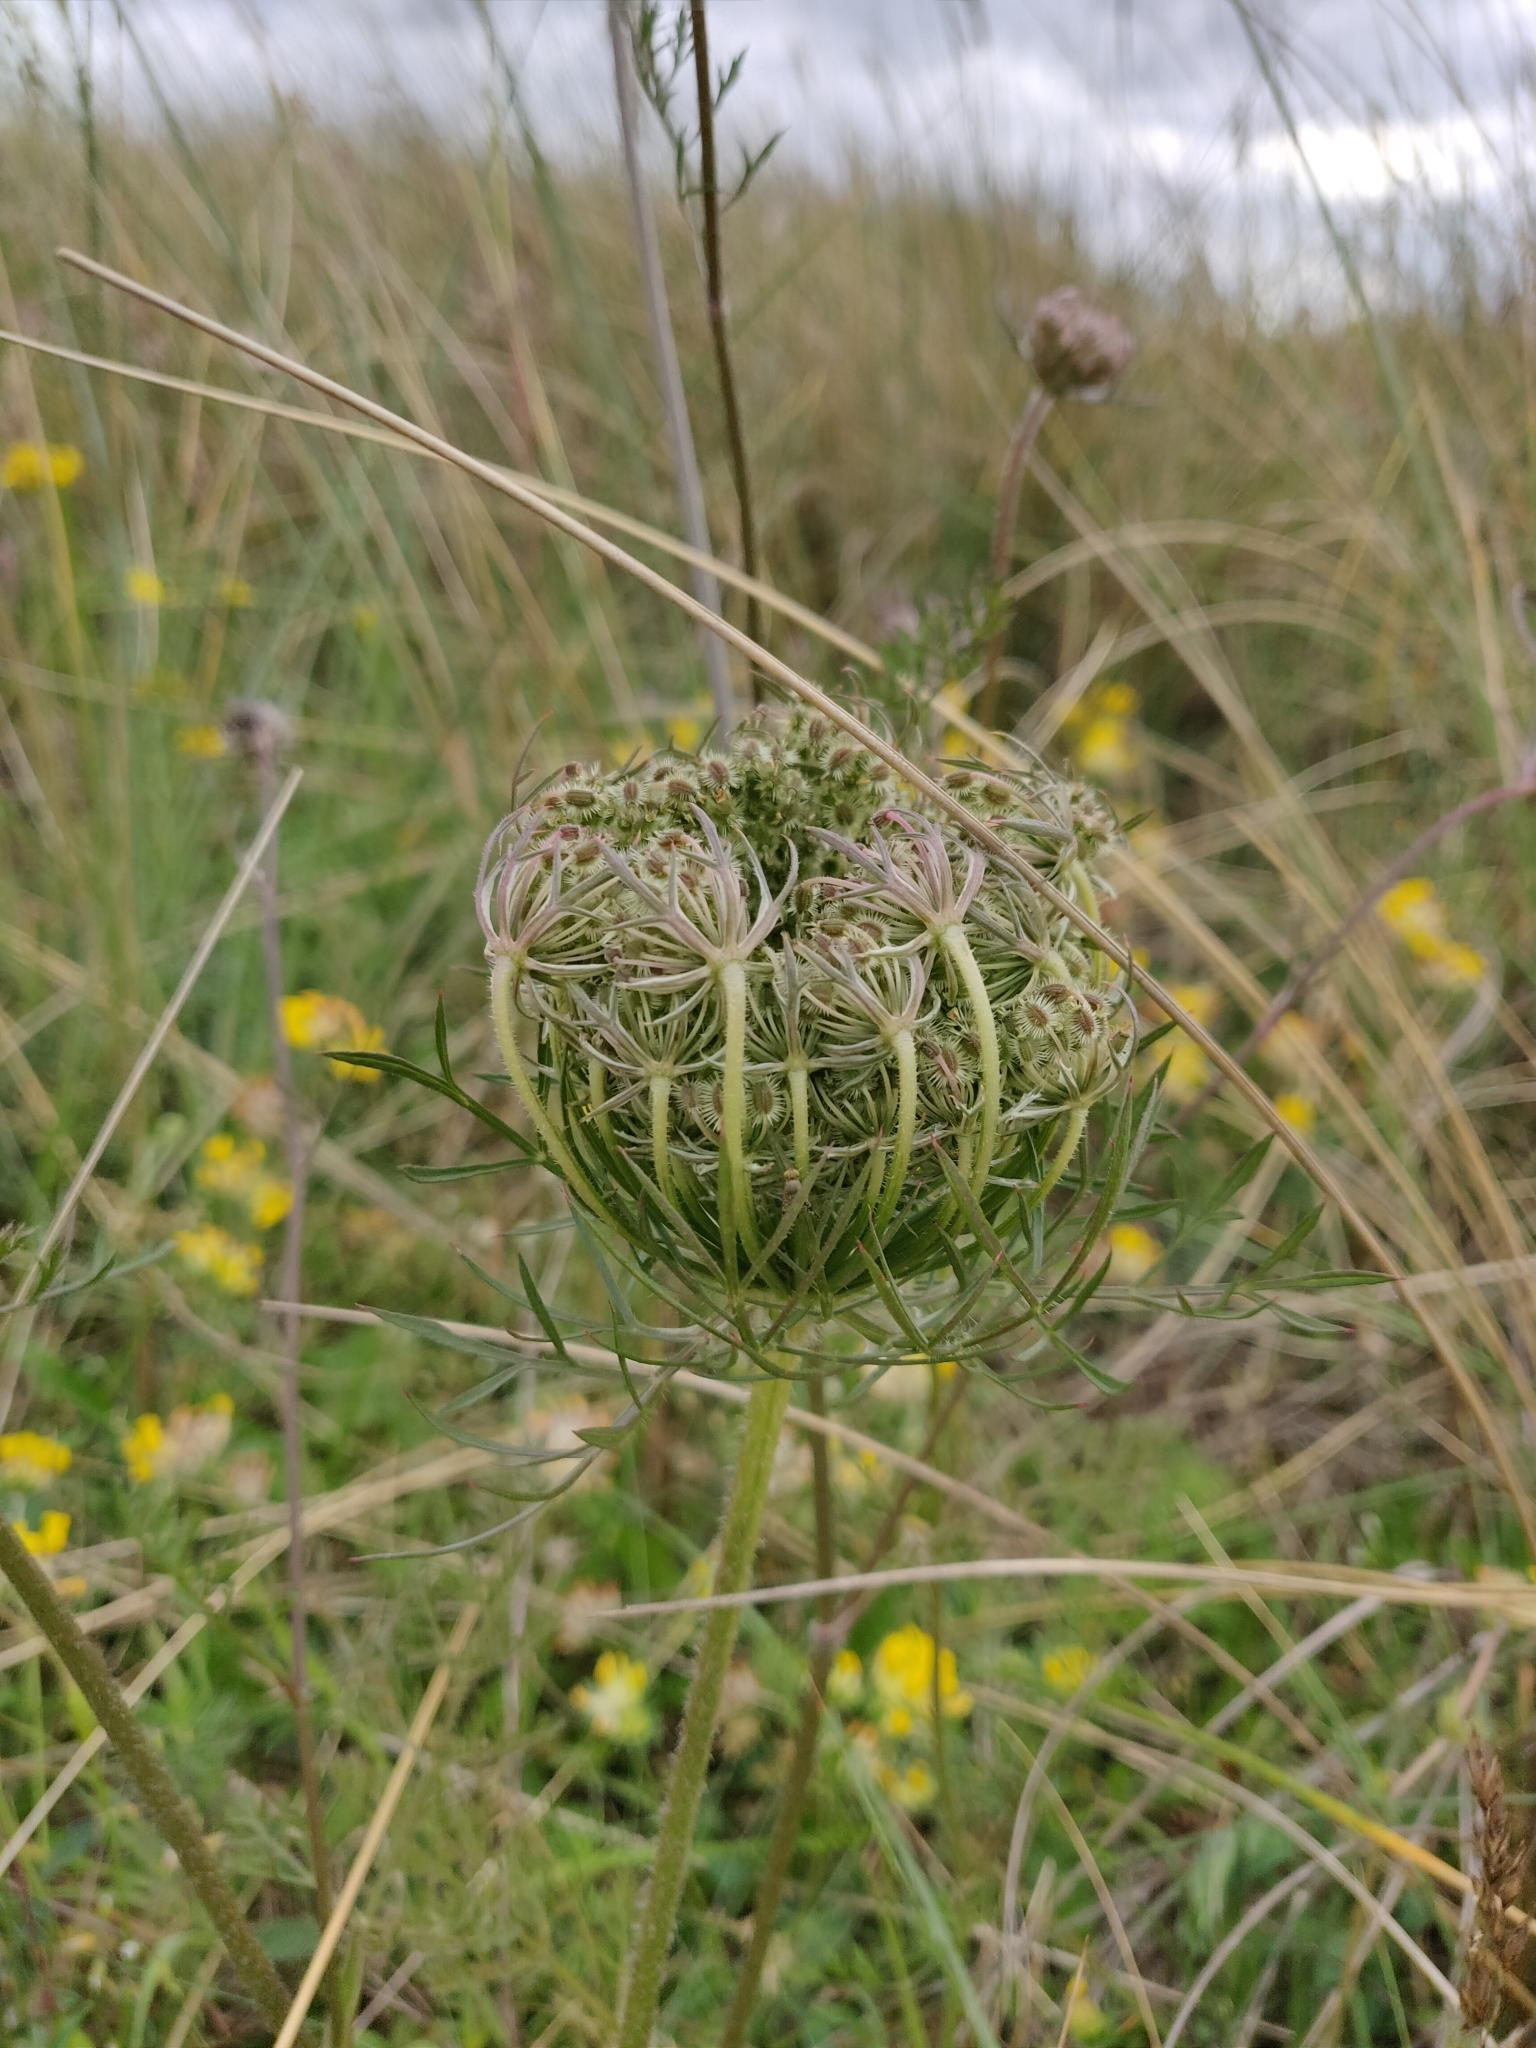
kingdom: Plantae
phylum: Tracheophyta
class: Magnoliopsida
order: Apiales
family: Apiaceae
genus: Daucus
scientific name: Daucus carota
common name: Wild carrot
